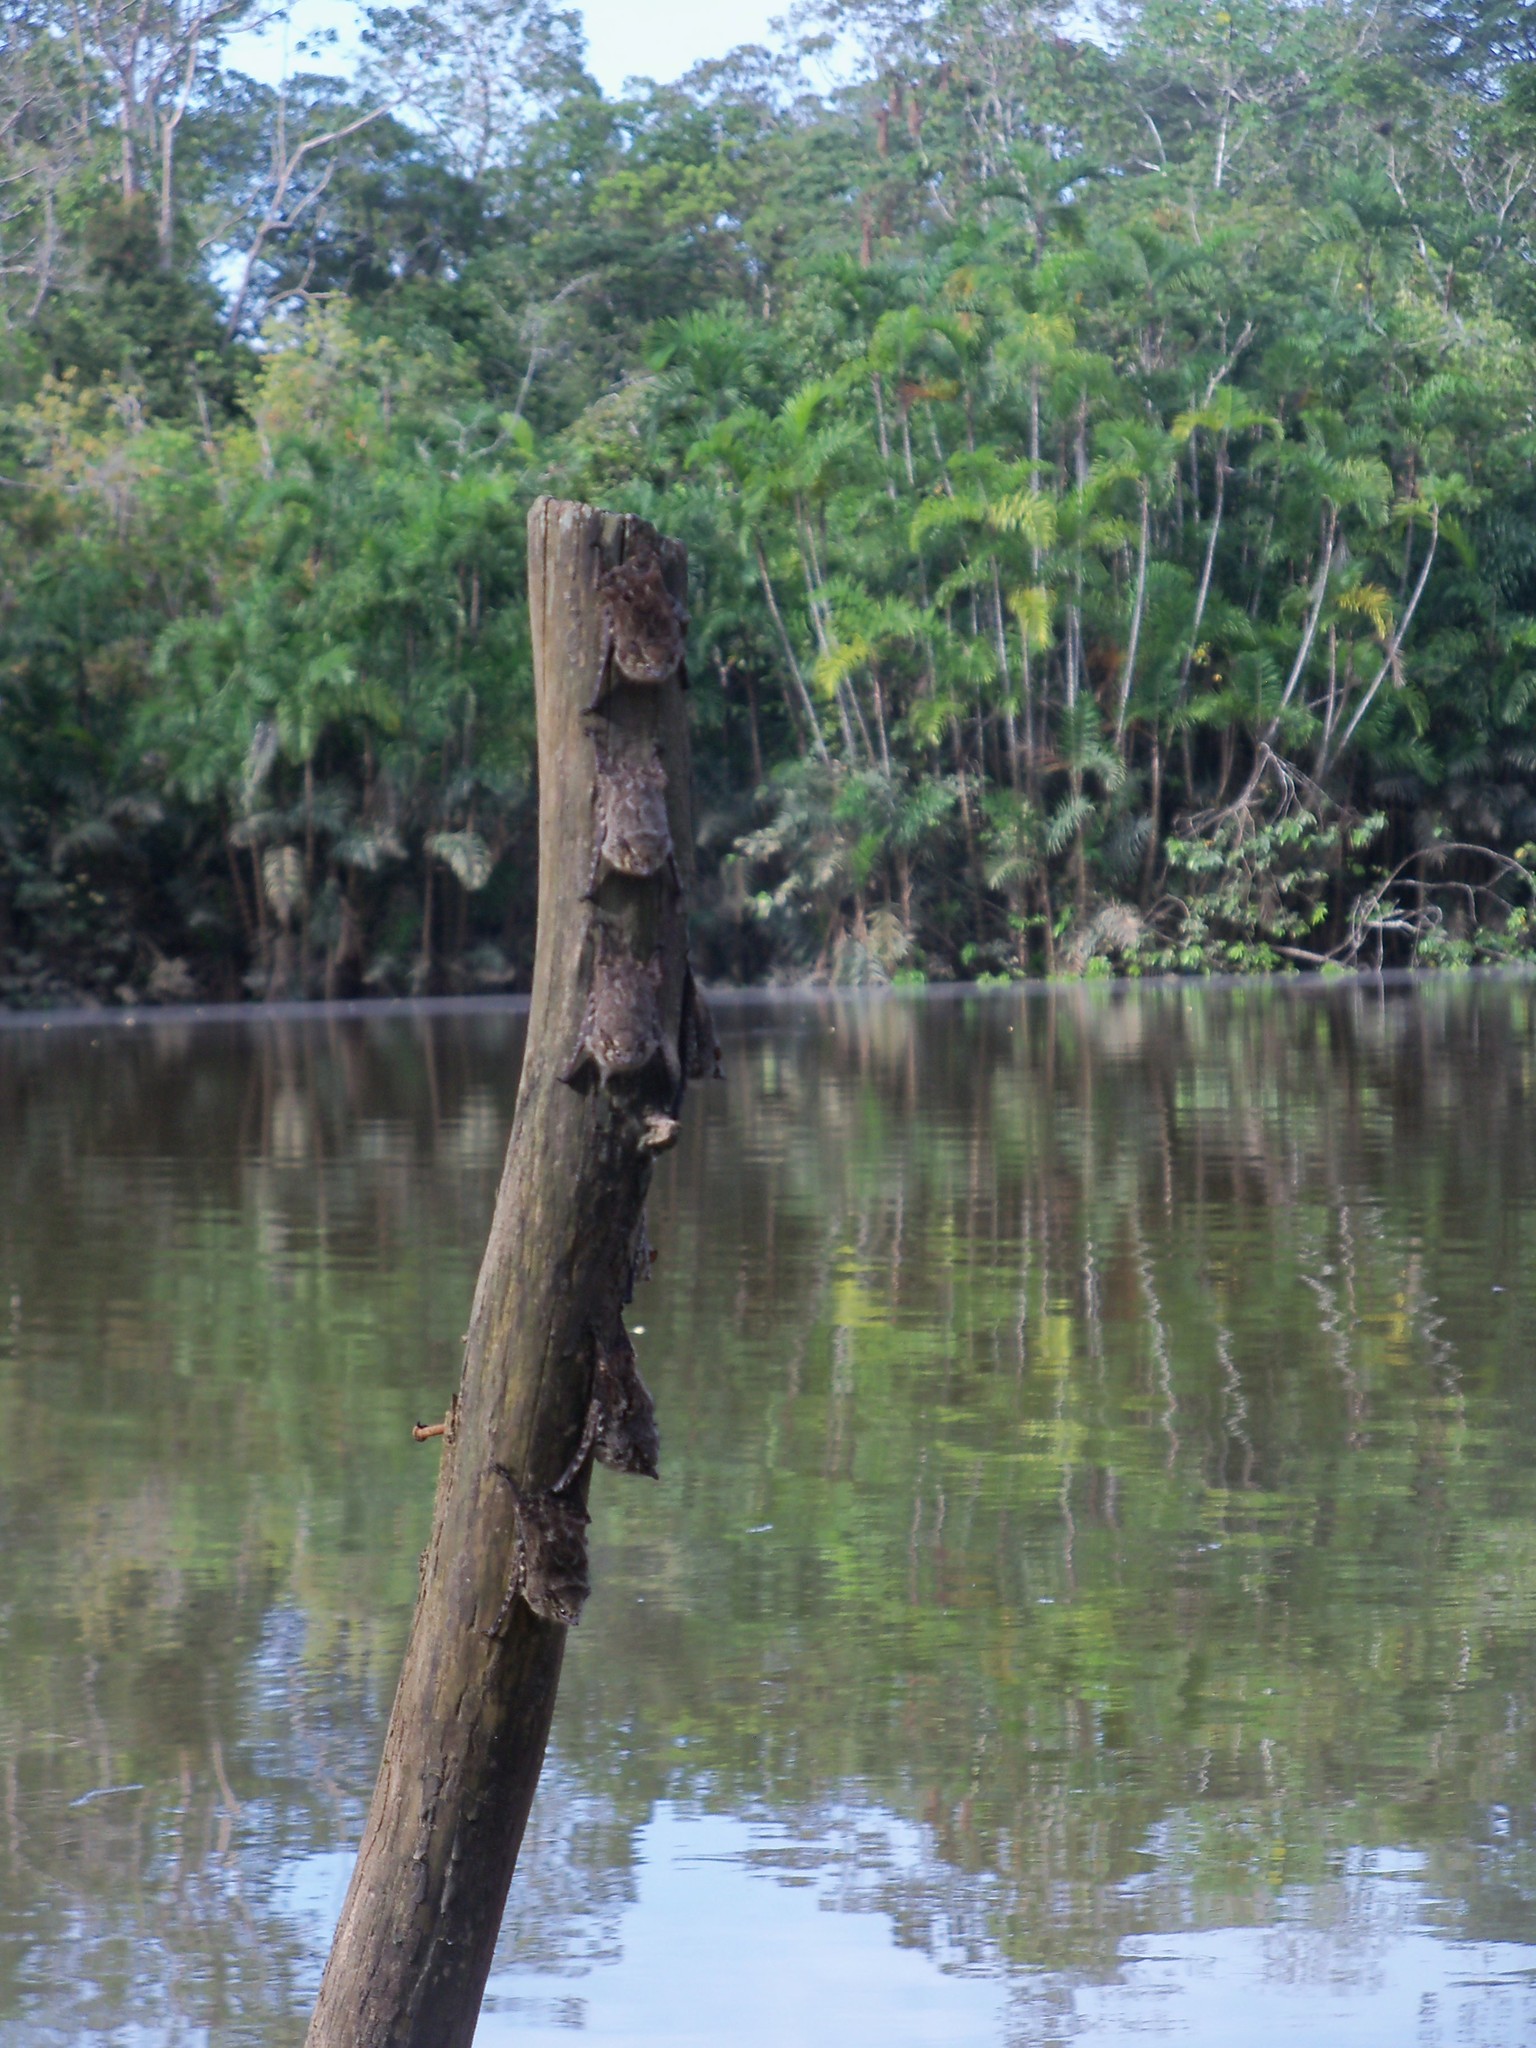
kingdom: Animalia
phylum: Chordata
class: Mammalia
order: Chiroptera
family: Emballonuridae
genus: Rhynchonycteris
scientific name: Rhynchonycteris naso
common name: Proboscis bat
